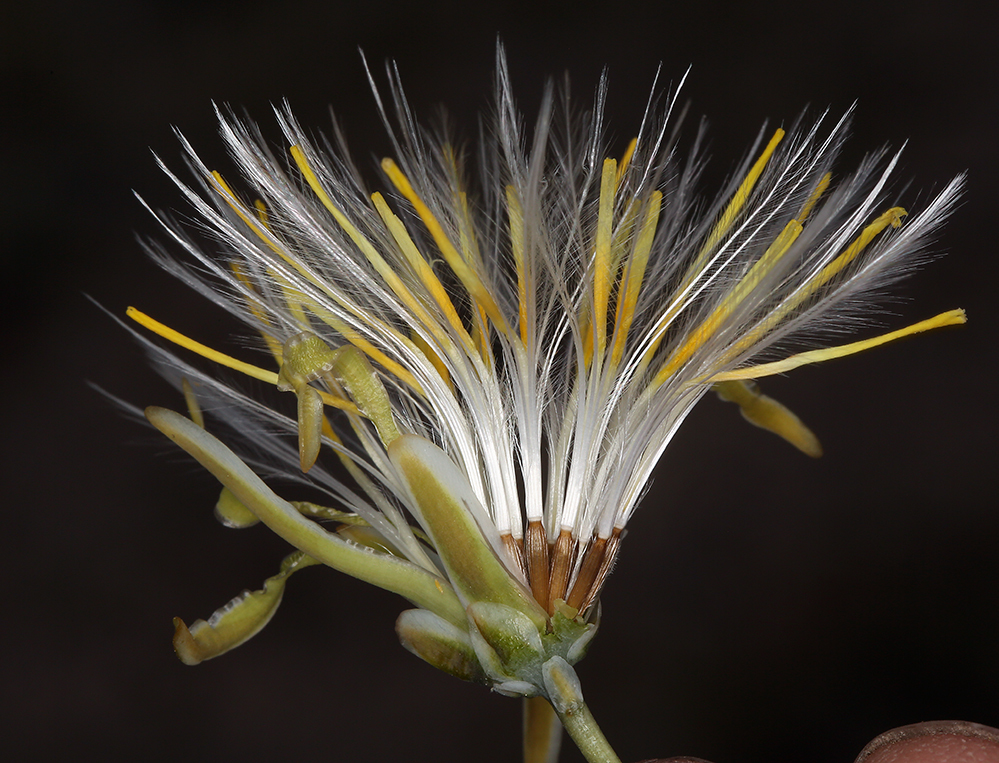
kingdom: Plantae
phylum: Tracheophyta
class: Magnoliopsida
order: Asterales
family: Asteraceae
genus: Anisocoma
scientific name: Anisocoma acaulis
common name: Scalebud
